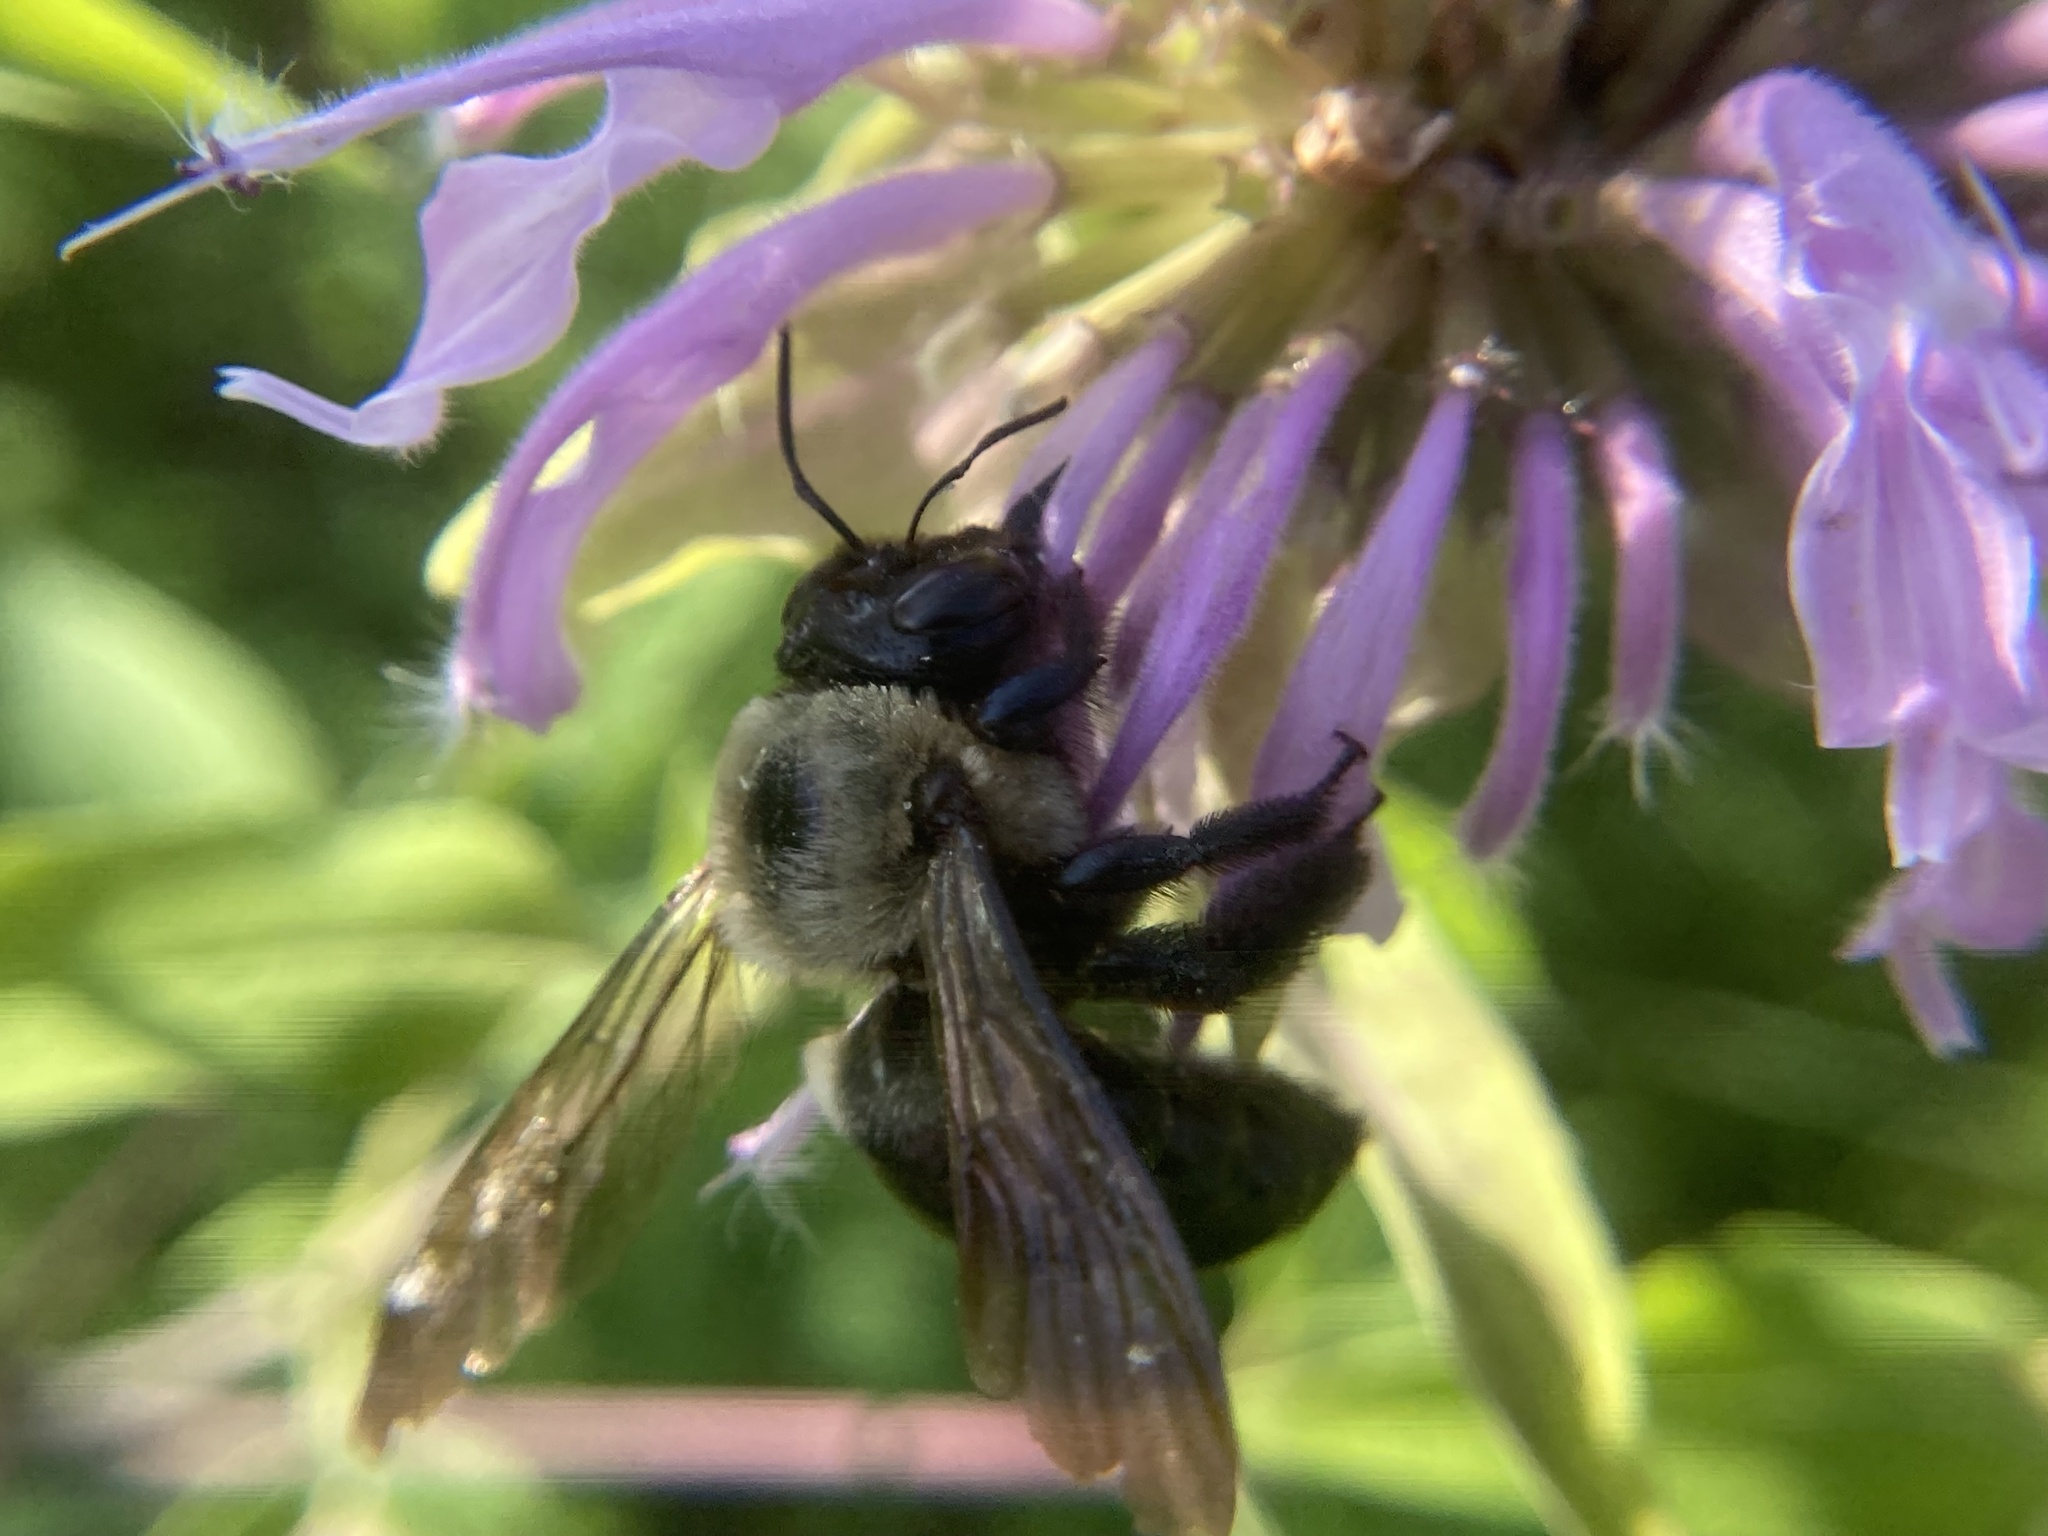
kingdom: Animalia
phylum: Arthropoda
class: Insecta
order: Hymenoptera
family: Apidae
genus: Xylocopa
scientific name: Xylocopa virginica
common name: Carpenter bee
